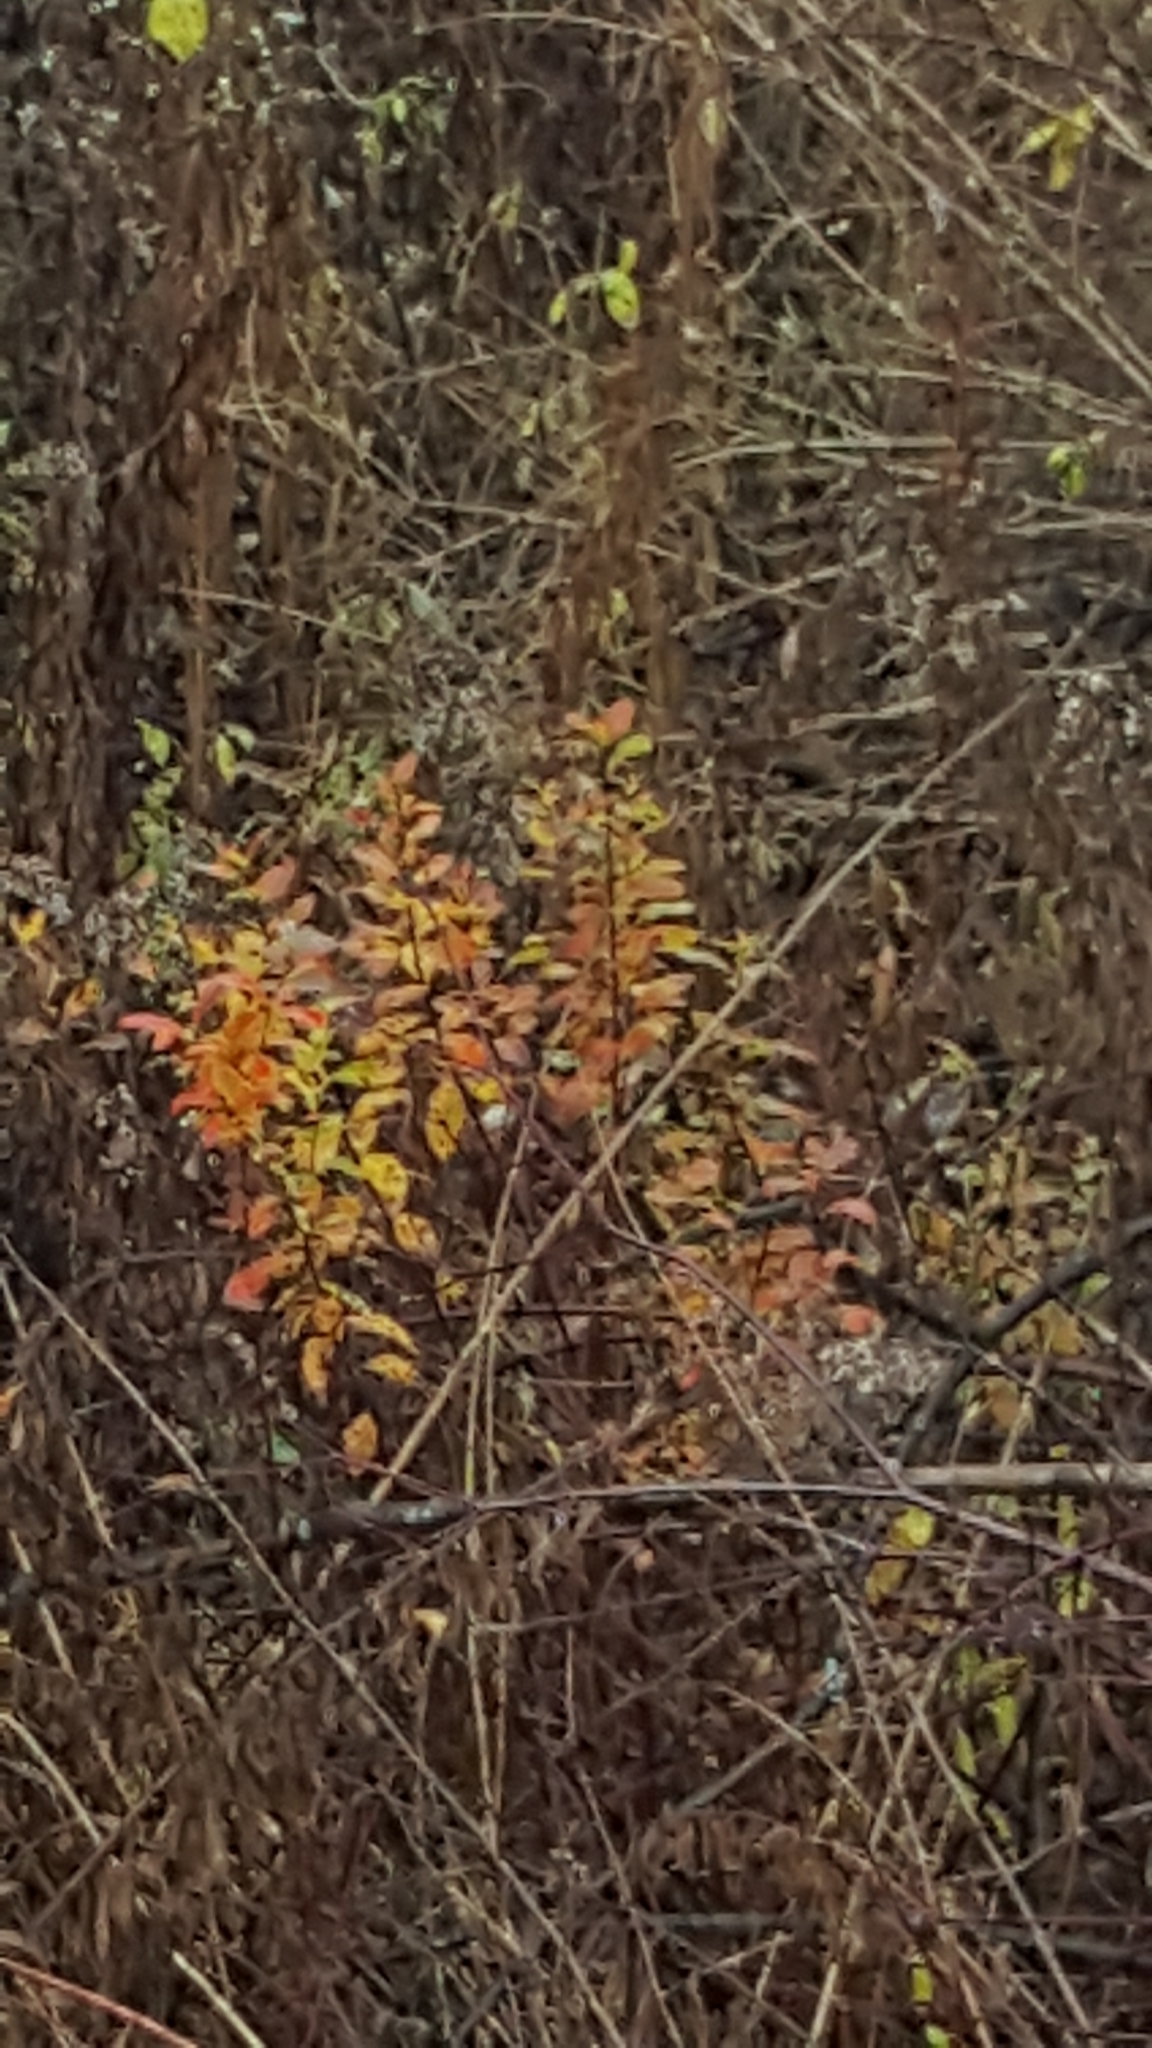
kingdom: Plantae
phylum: Tracheophyta
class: Magnoliopsida
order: Rosales
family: Rosaceae
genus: Spiraea
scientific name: Spiraea alba
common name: Pale bridewort
